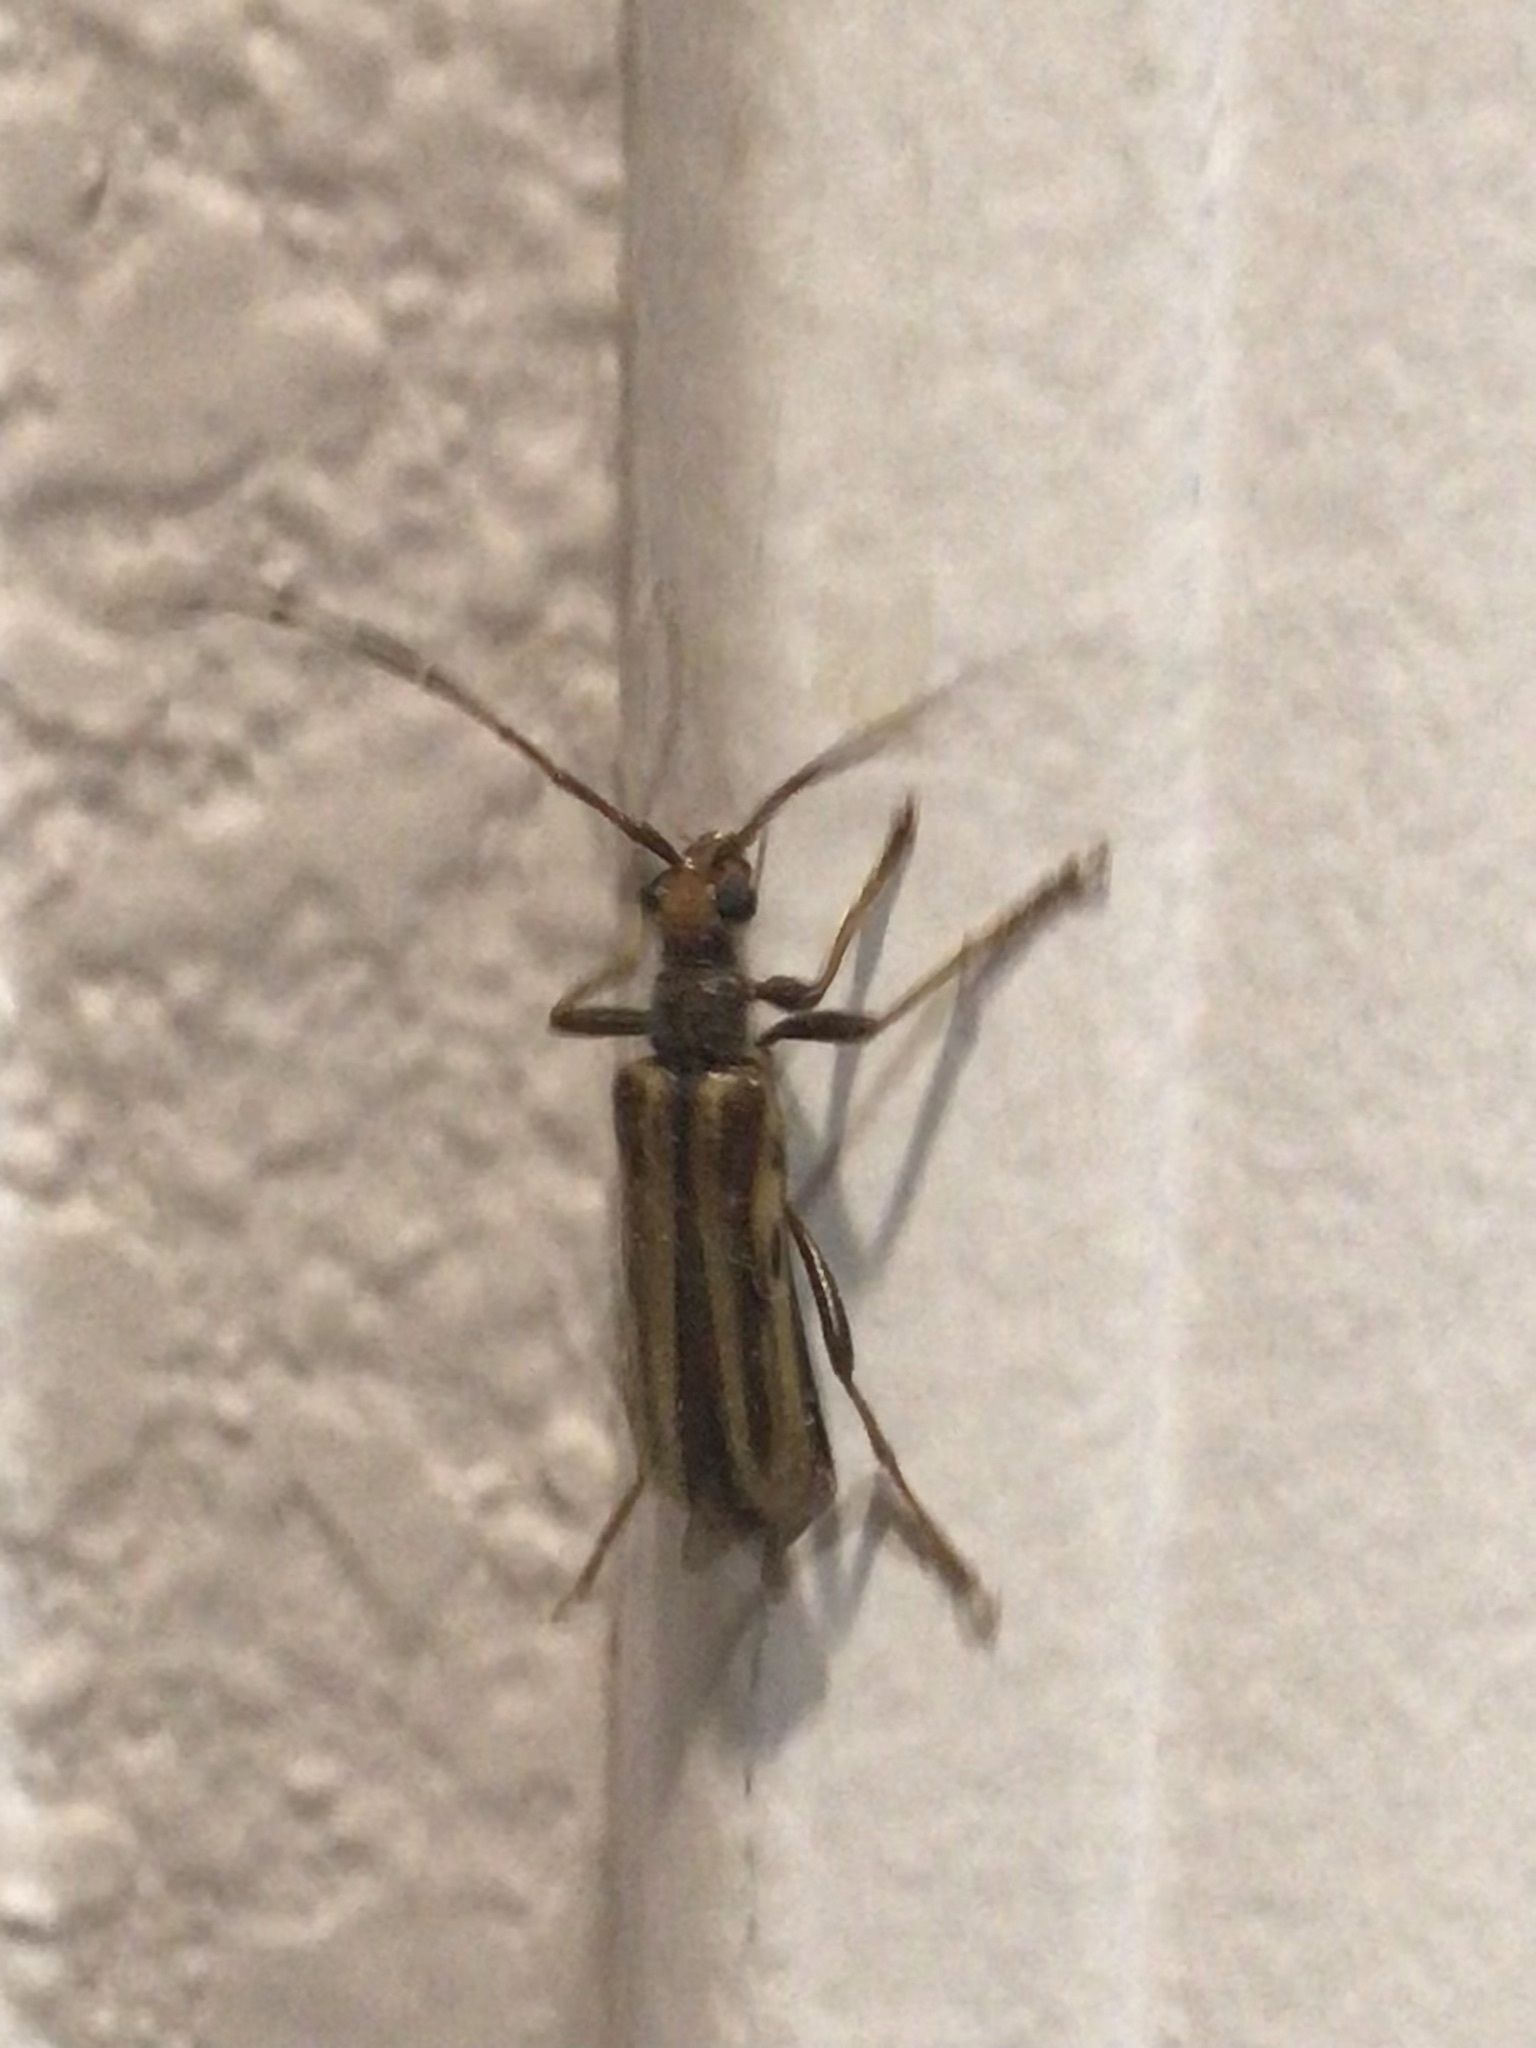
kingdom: Animalia
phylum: Arthropoda
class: Insecta
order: Coleoptera
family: Cerambycidae
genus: Ortholeptura
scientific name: Ortholeptura insignis
